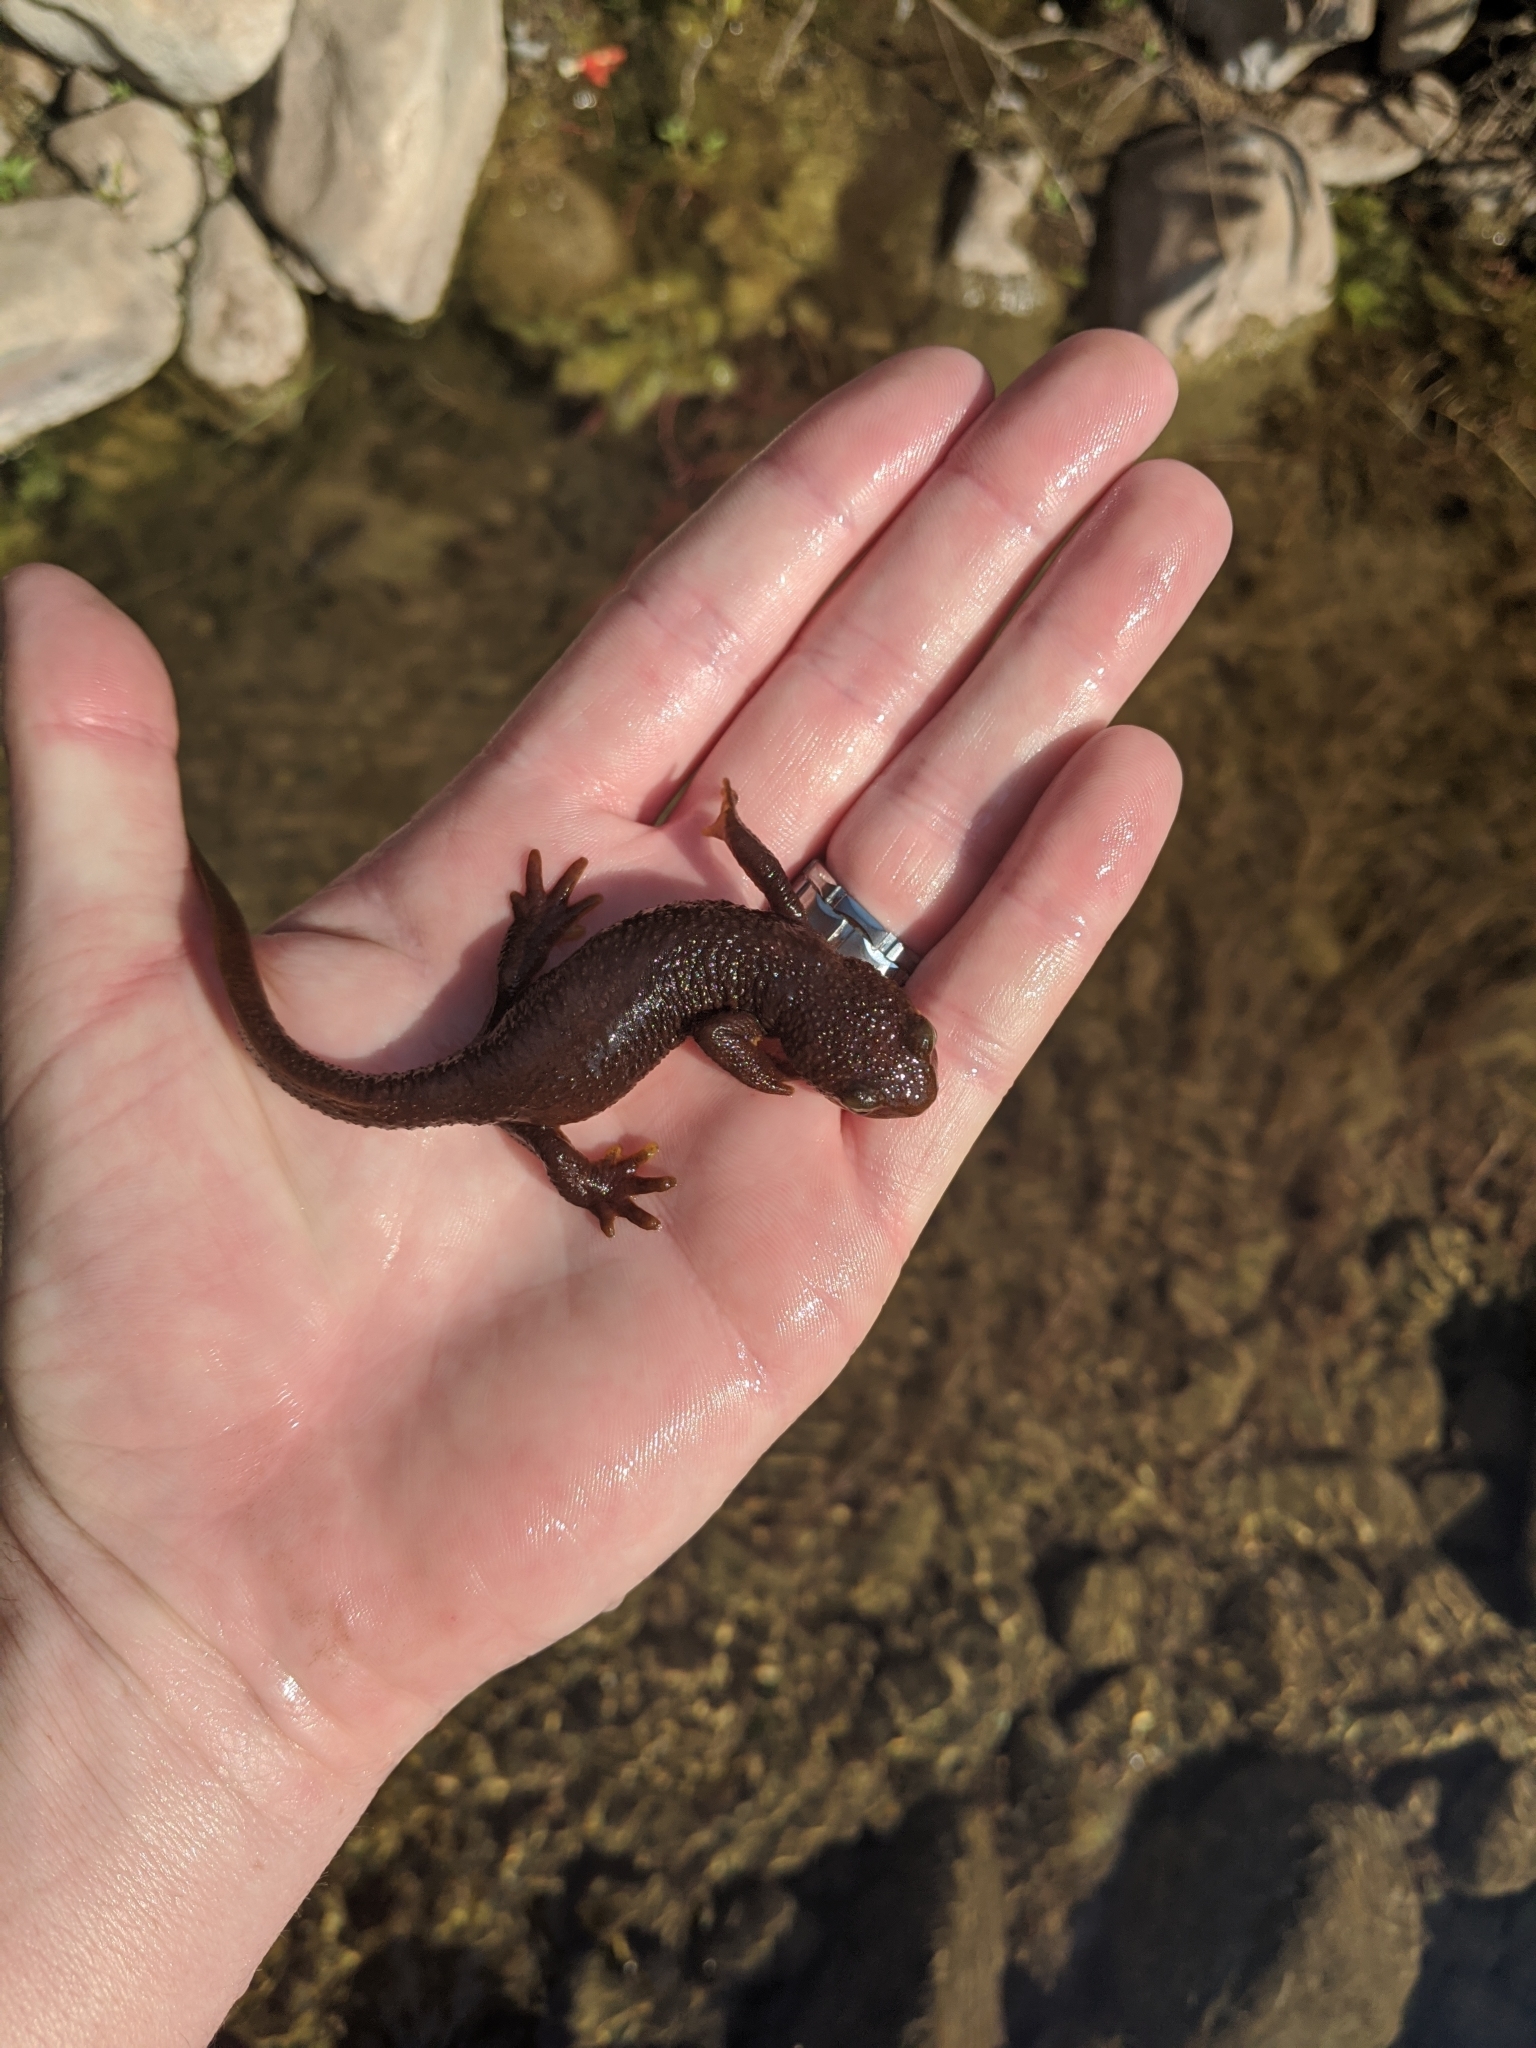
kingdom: Animalia
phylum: Chordata
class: Amphibia
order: Caudata
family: Salamandridae
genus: Taricha
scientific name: Taricha torosa
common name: California newt
